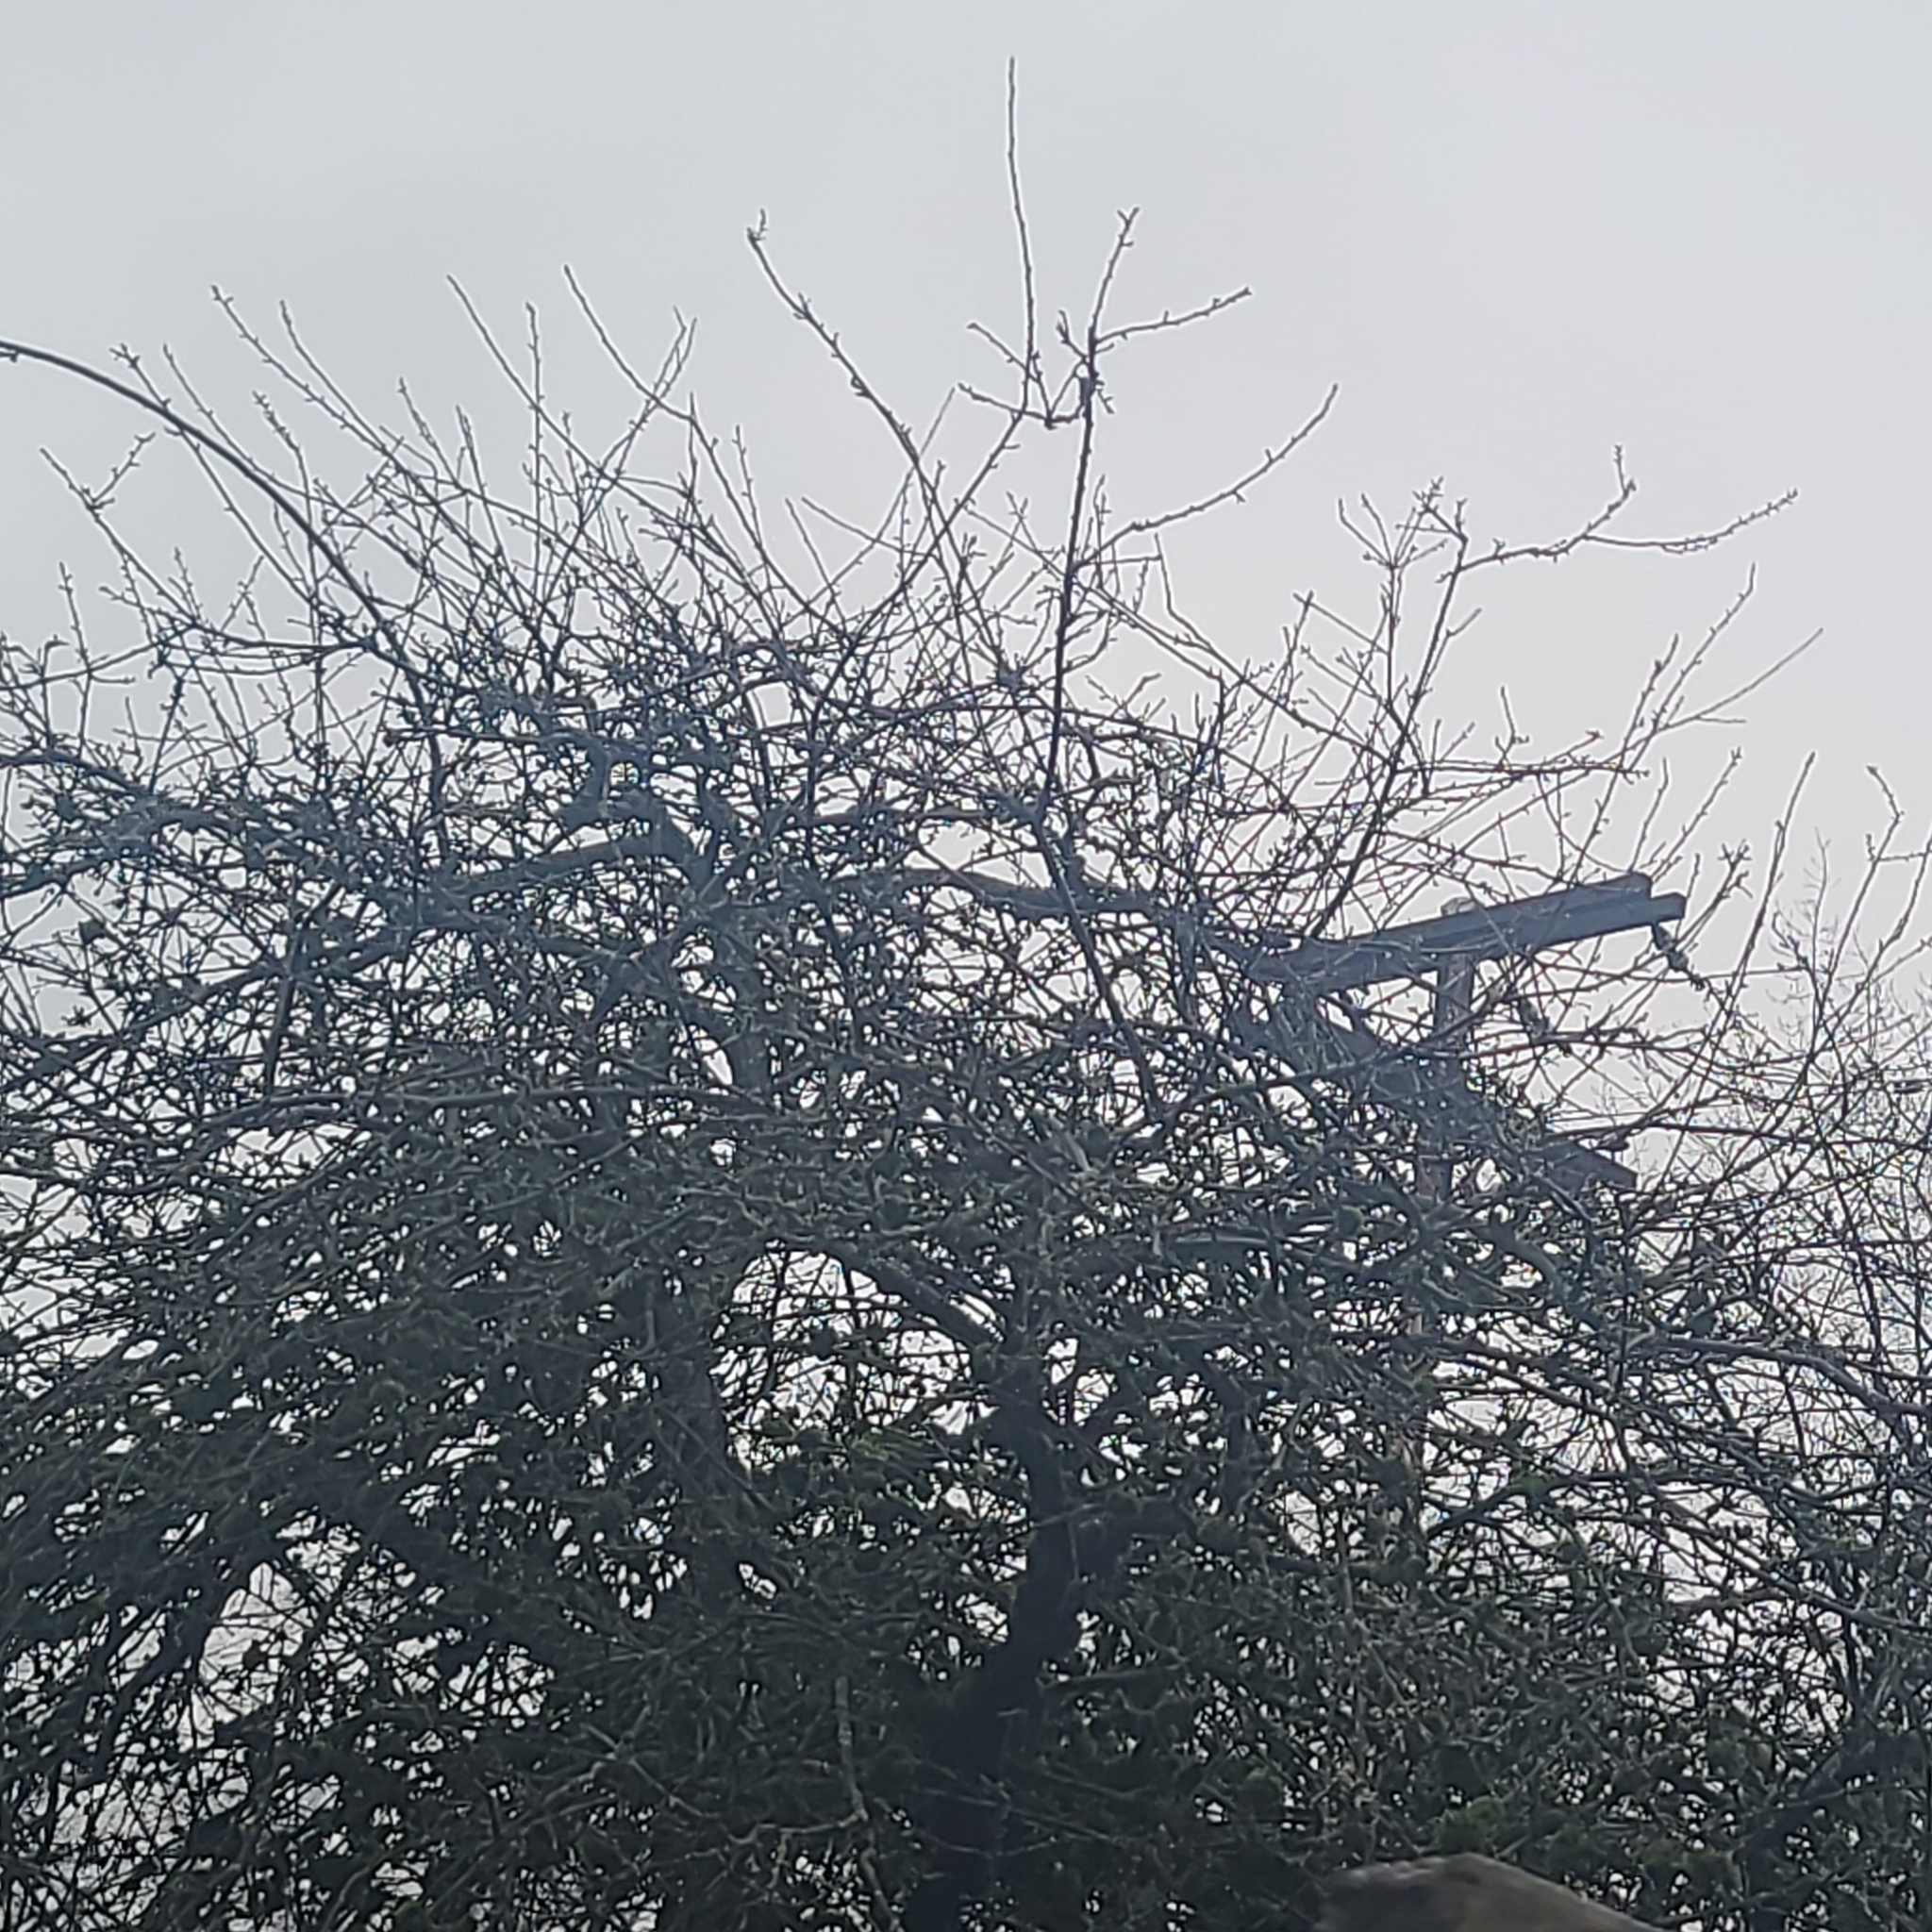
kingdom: Animalia
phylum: Chordata
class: Aves
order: Passeriformes
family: Paridae
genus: Poecile
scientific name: Poecile atricapillus
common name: Black-capped chickadee
